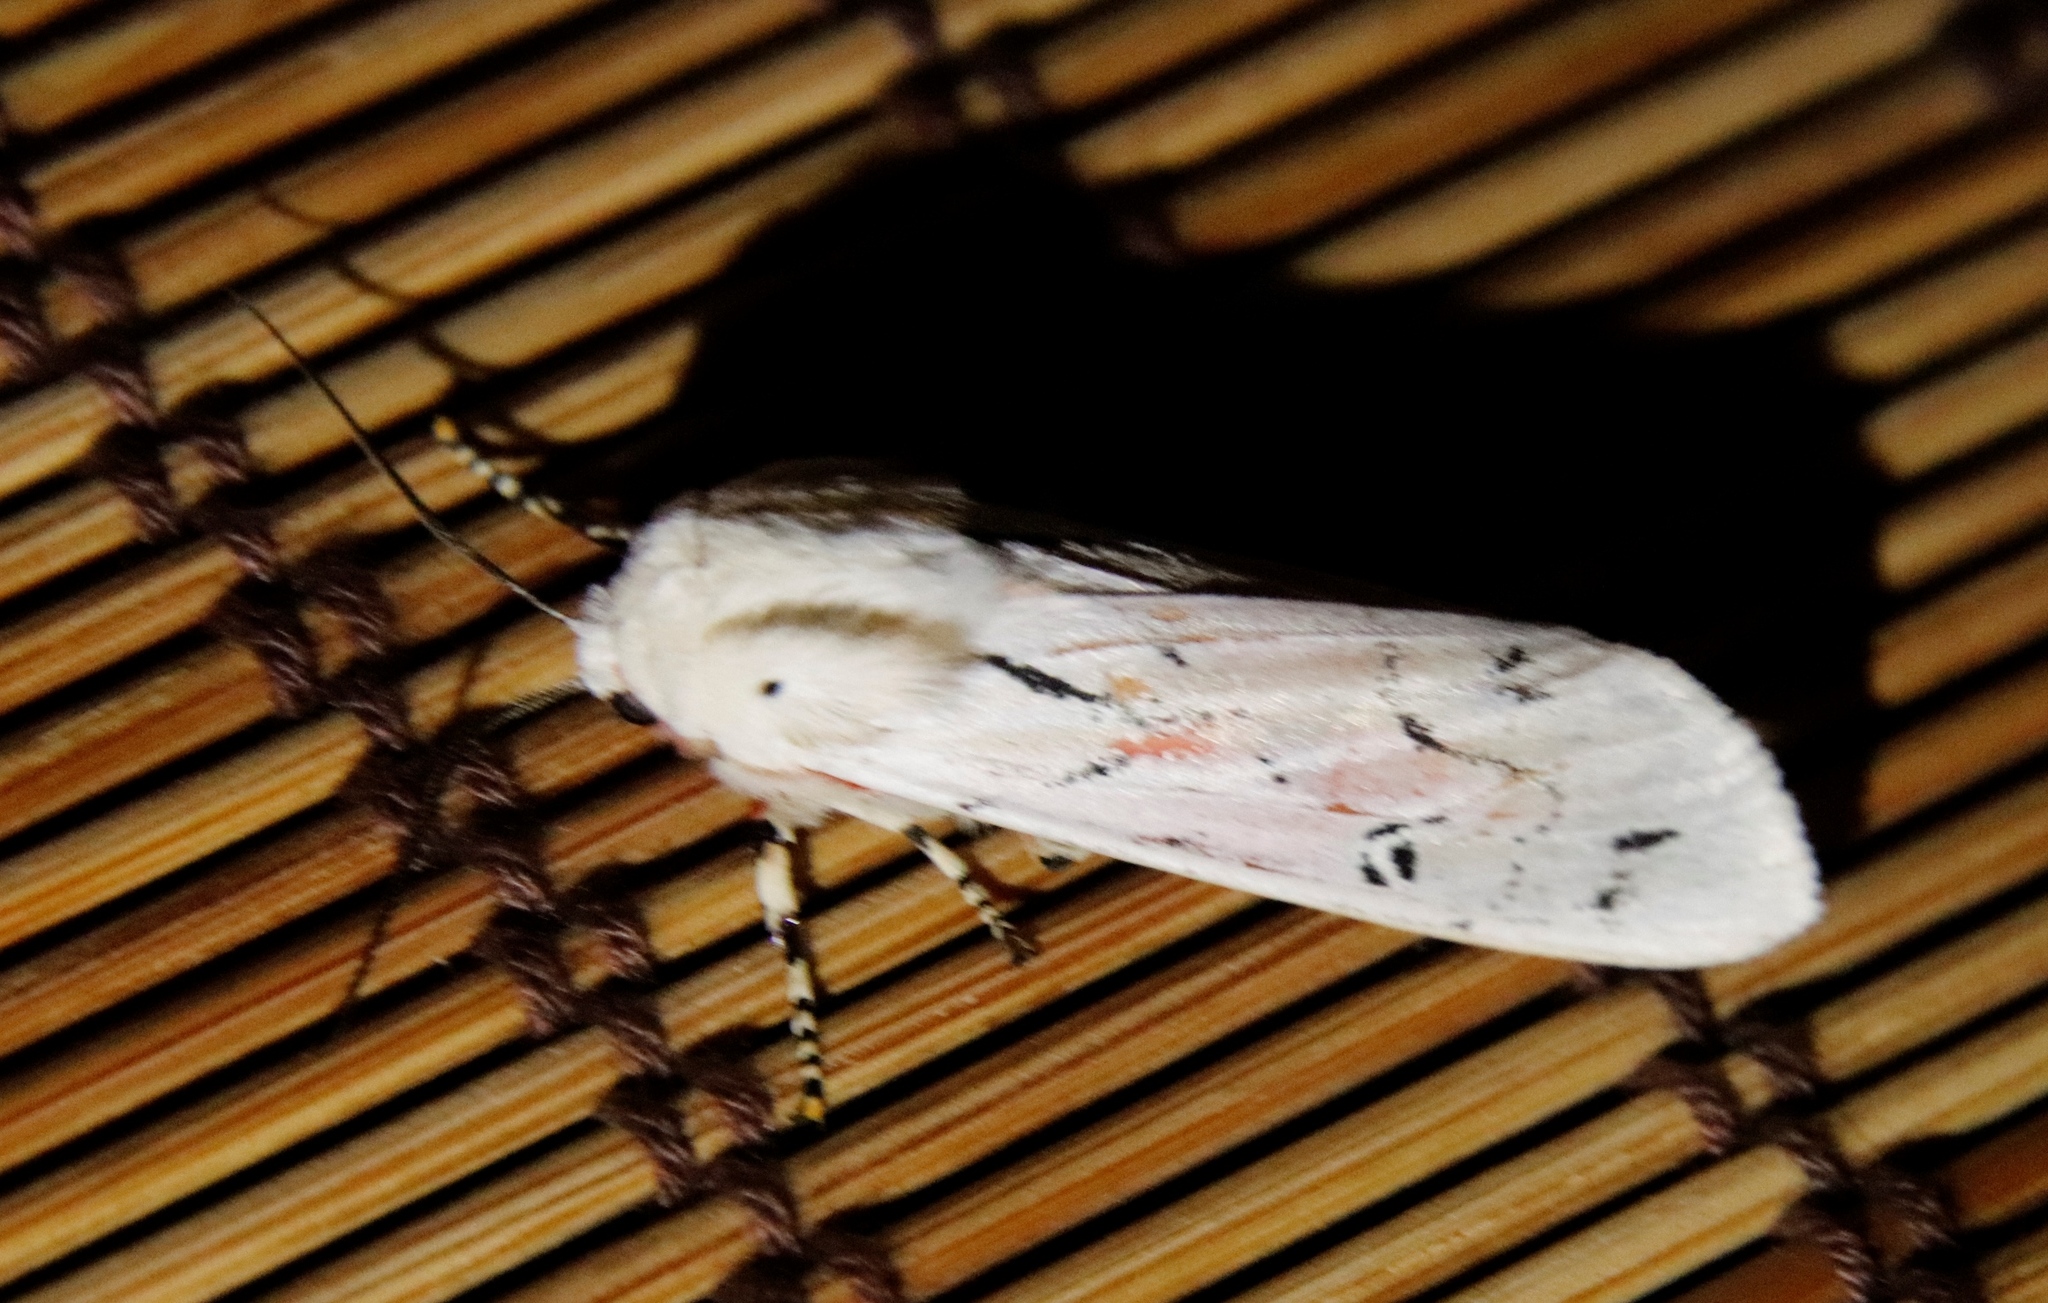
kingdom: Animalia
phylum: Arthropoda
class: Insecta
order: Lepidoptera
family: Erebidae
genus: Rhodogastria
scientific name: Rhodogastria amasis
